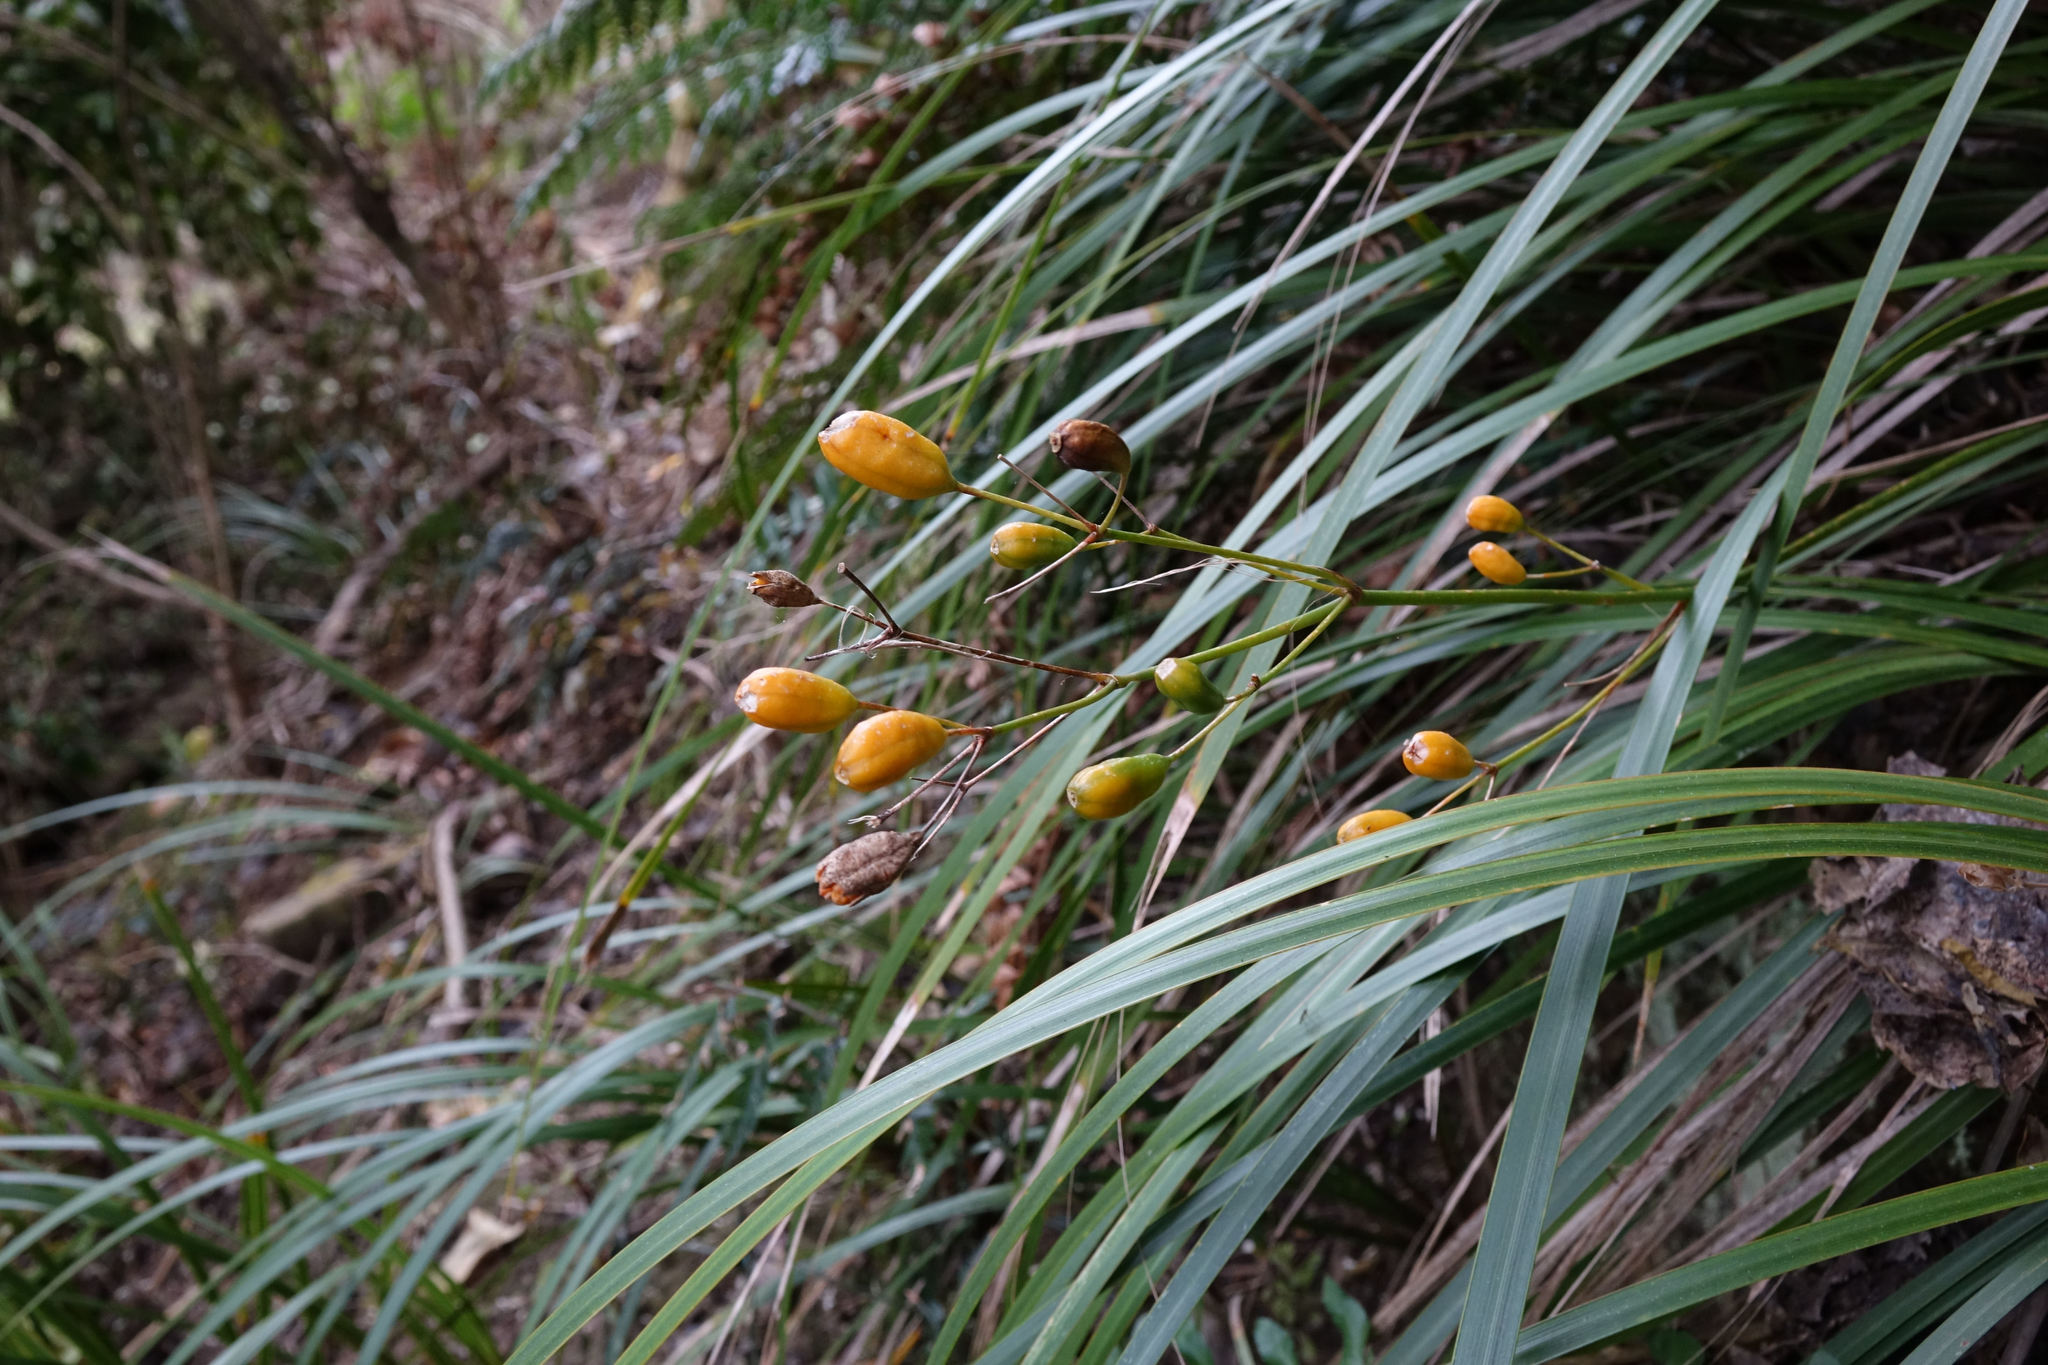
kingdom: Plantae
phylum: Tracheophyta
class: Liliopsida
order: Asparagales
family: Iridaceae
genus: Libertia
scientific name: Libertia ixioides
